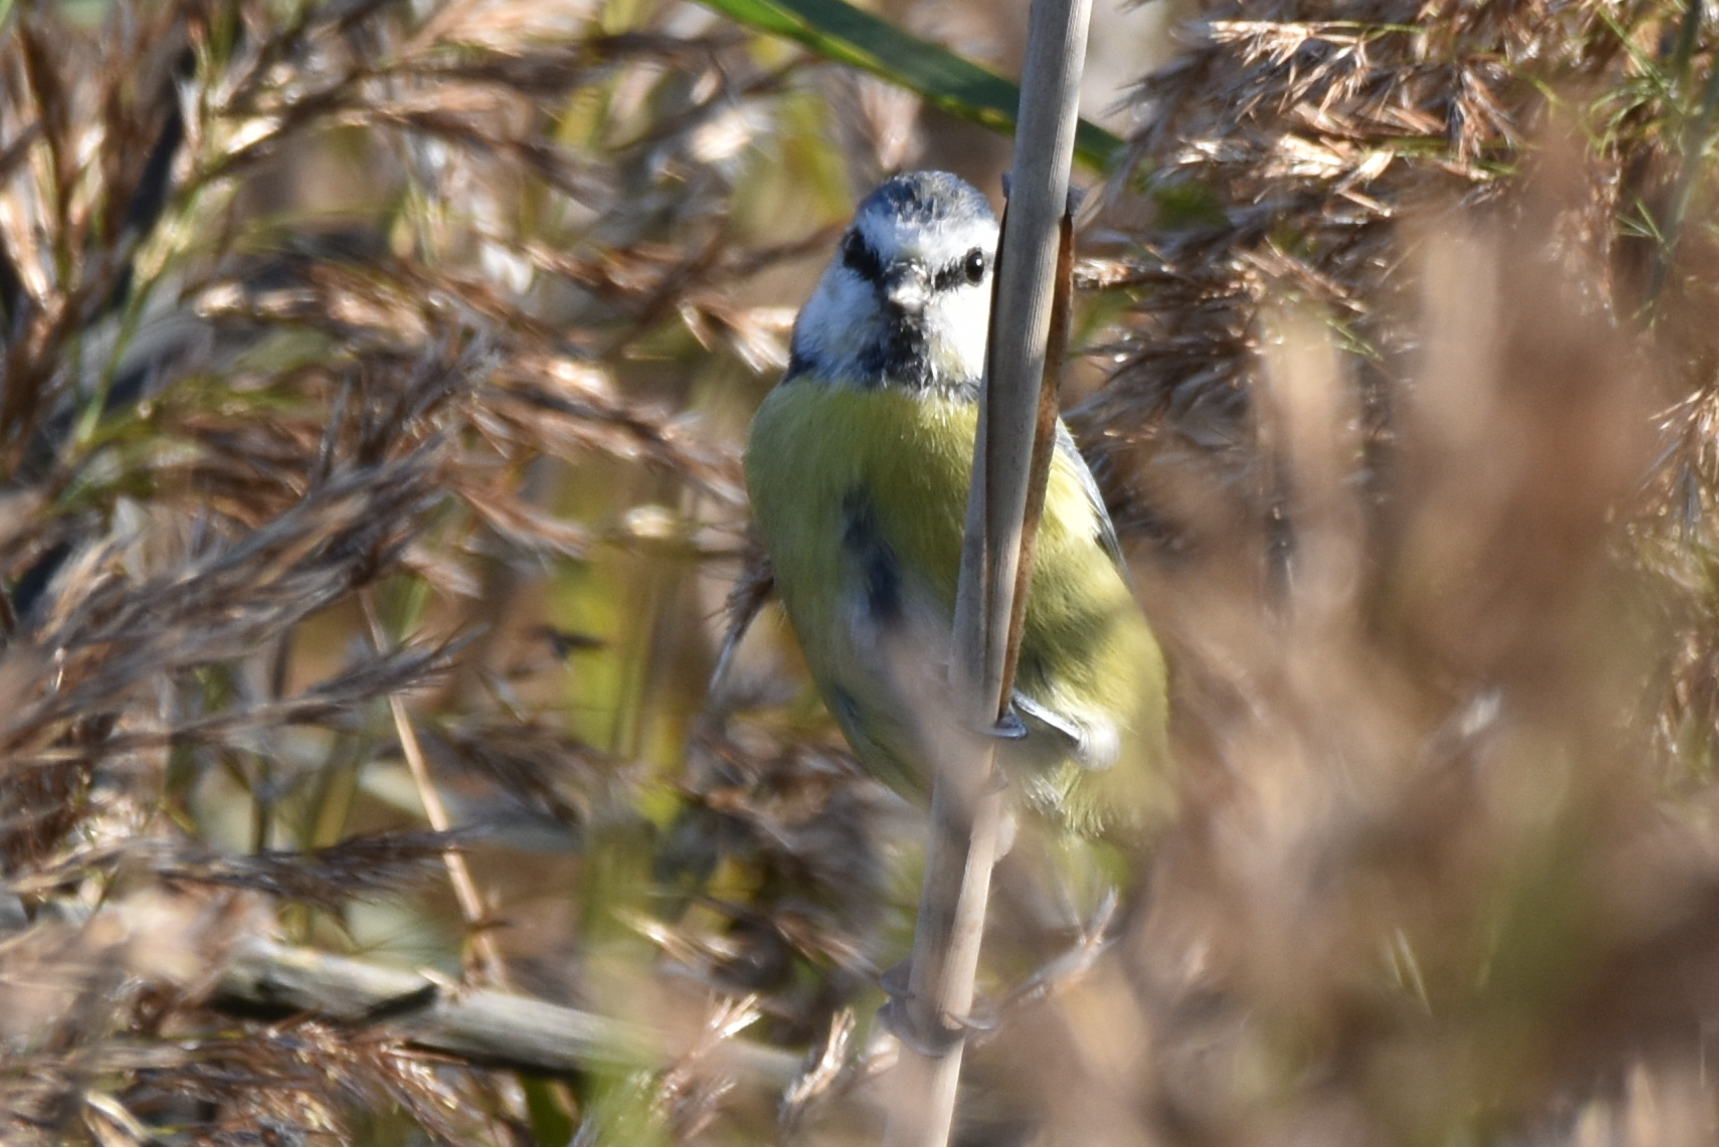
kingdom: Animalia
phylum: Chordata
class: Aves
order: Passeriformes
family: Paridae
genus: Cyanistes
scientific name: Cyanistes caeruleus
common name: Eurasian blue tit
